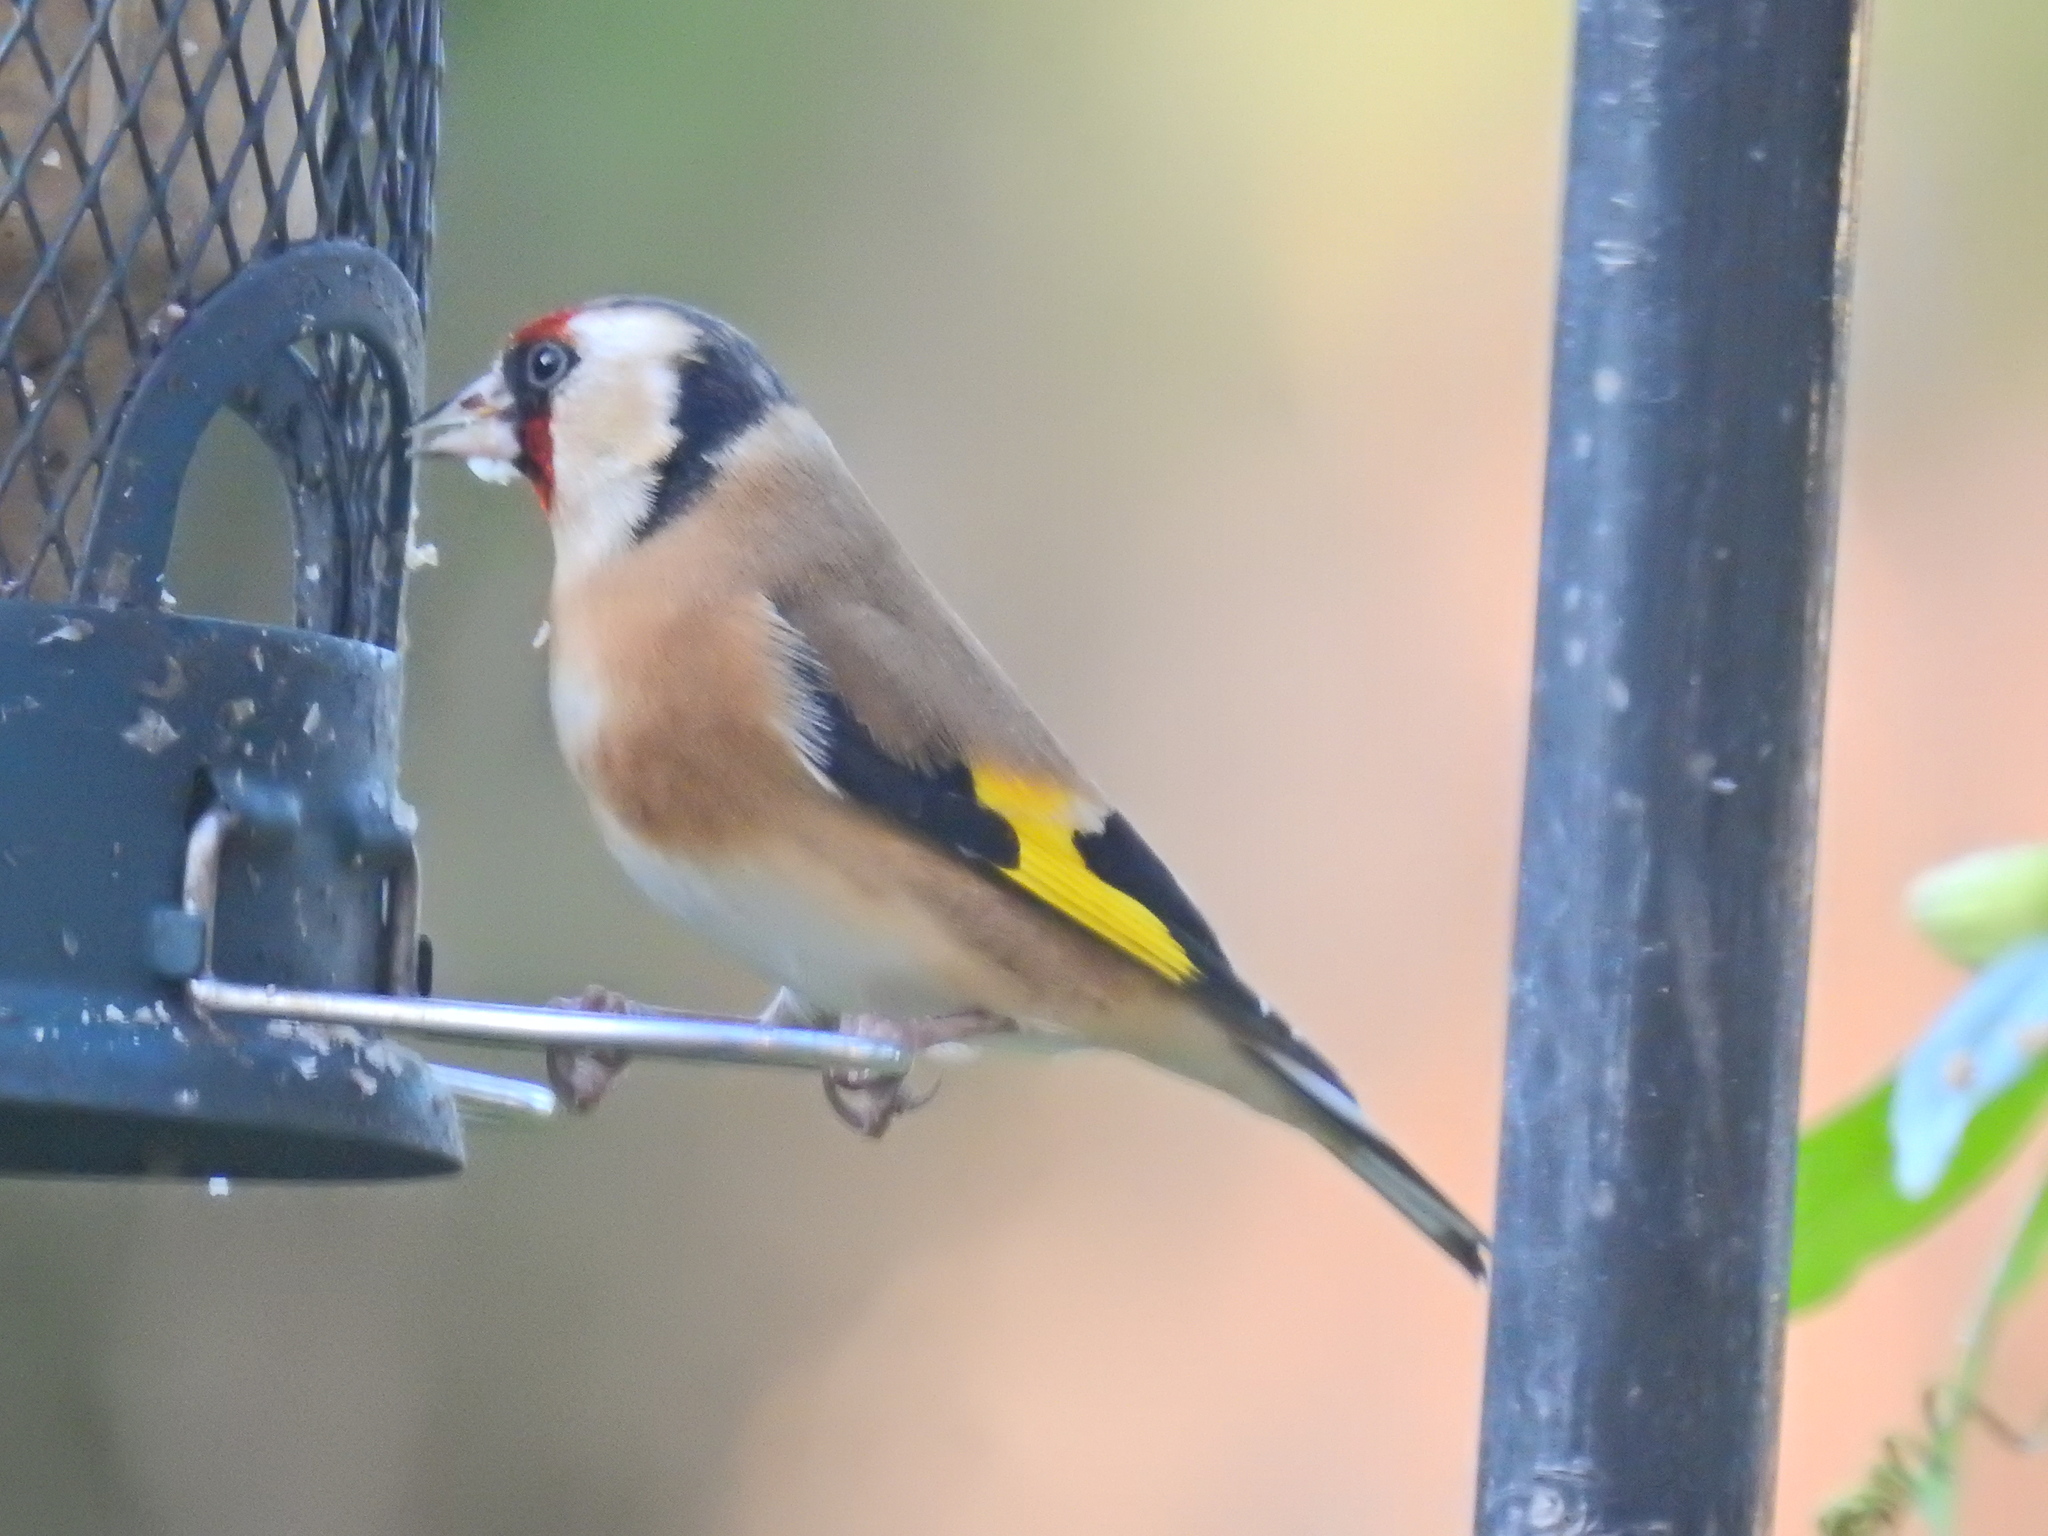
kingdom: Animalia
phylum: Chordata
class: Aves
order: Passeriformes
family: Fringillidae
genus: Carduelis
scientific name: Carduelis carduelis
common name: European goldfinch
